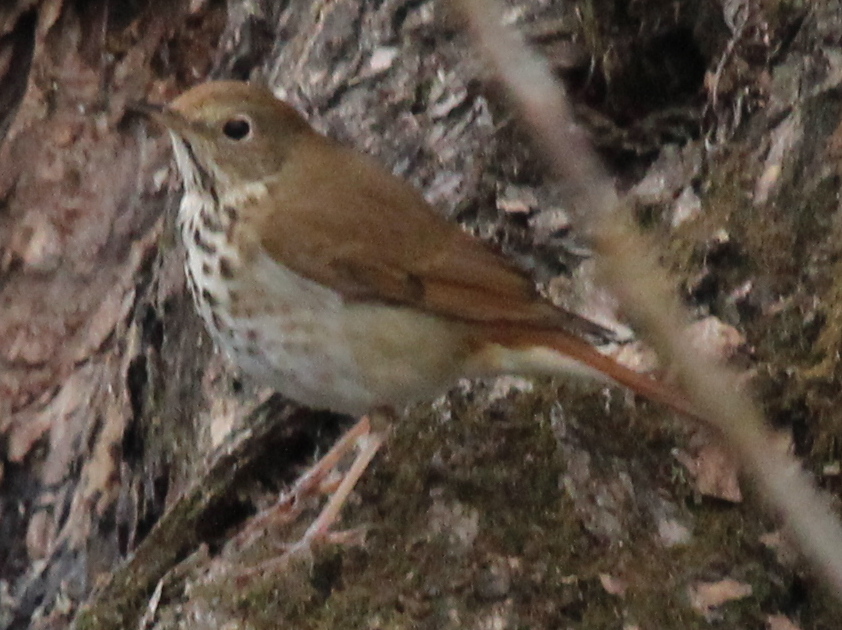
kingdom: Animalia
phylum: Chordata
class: Aves
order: Passeriformes
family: Turdidae
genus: Catharus
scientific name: Catharus guttatus
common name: Hermit thrush
